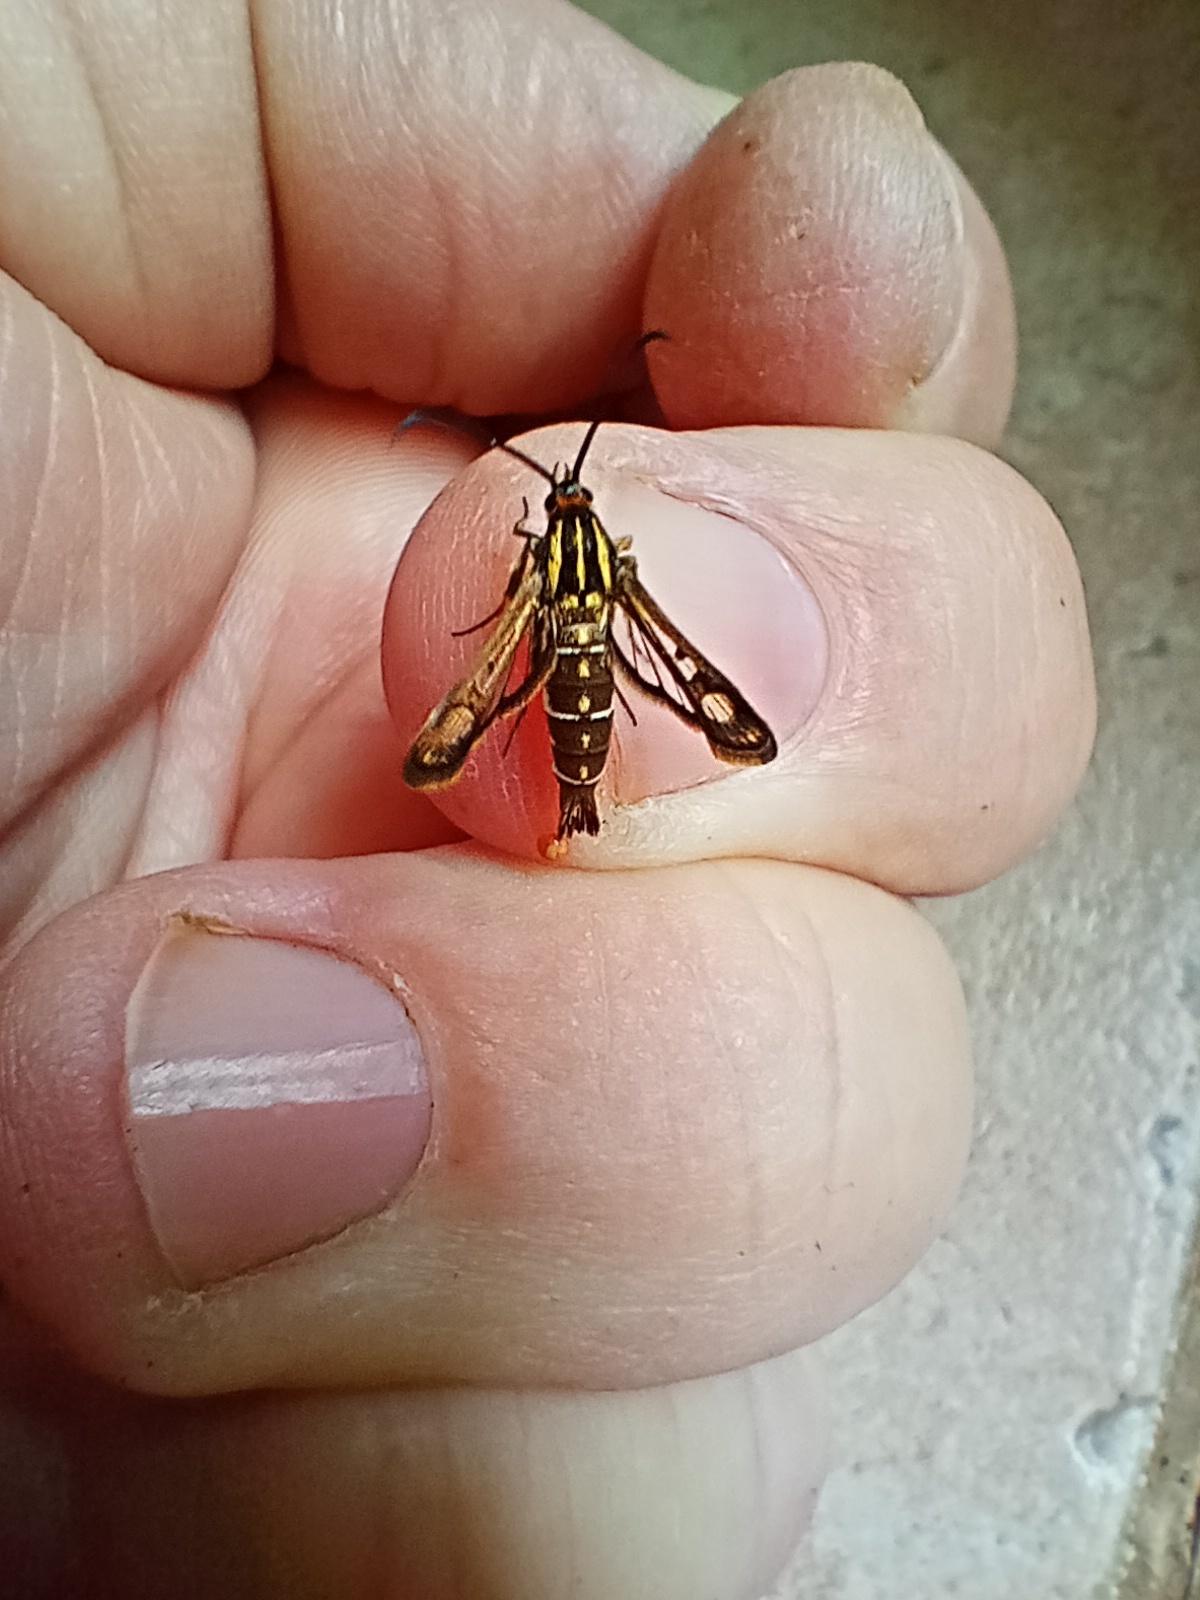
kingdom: Animalia
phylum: Arthropoda
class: Insecta
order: Lepidoptera
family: Sesiidae
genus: Pyropteron
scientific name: Pyropteron triannuliformis
